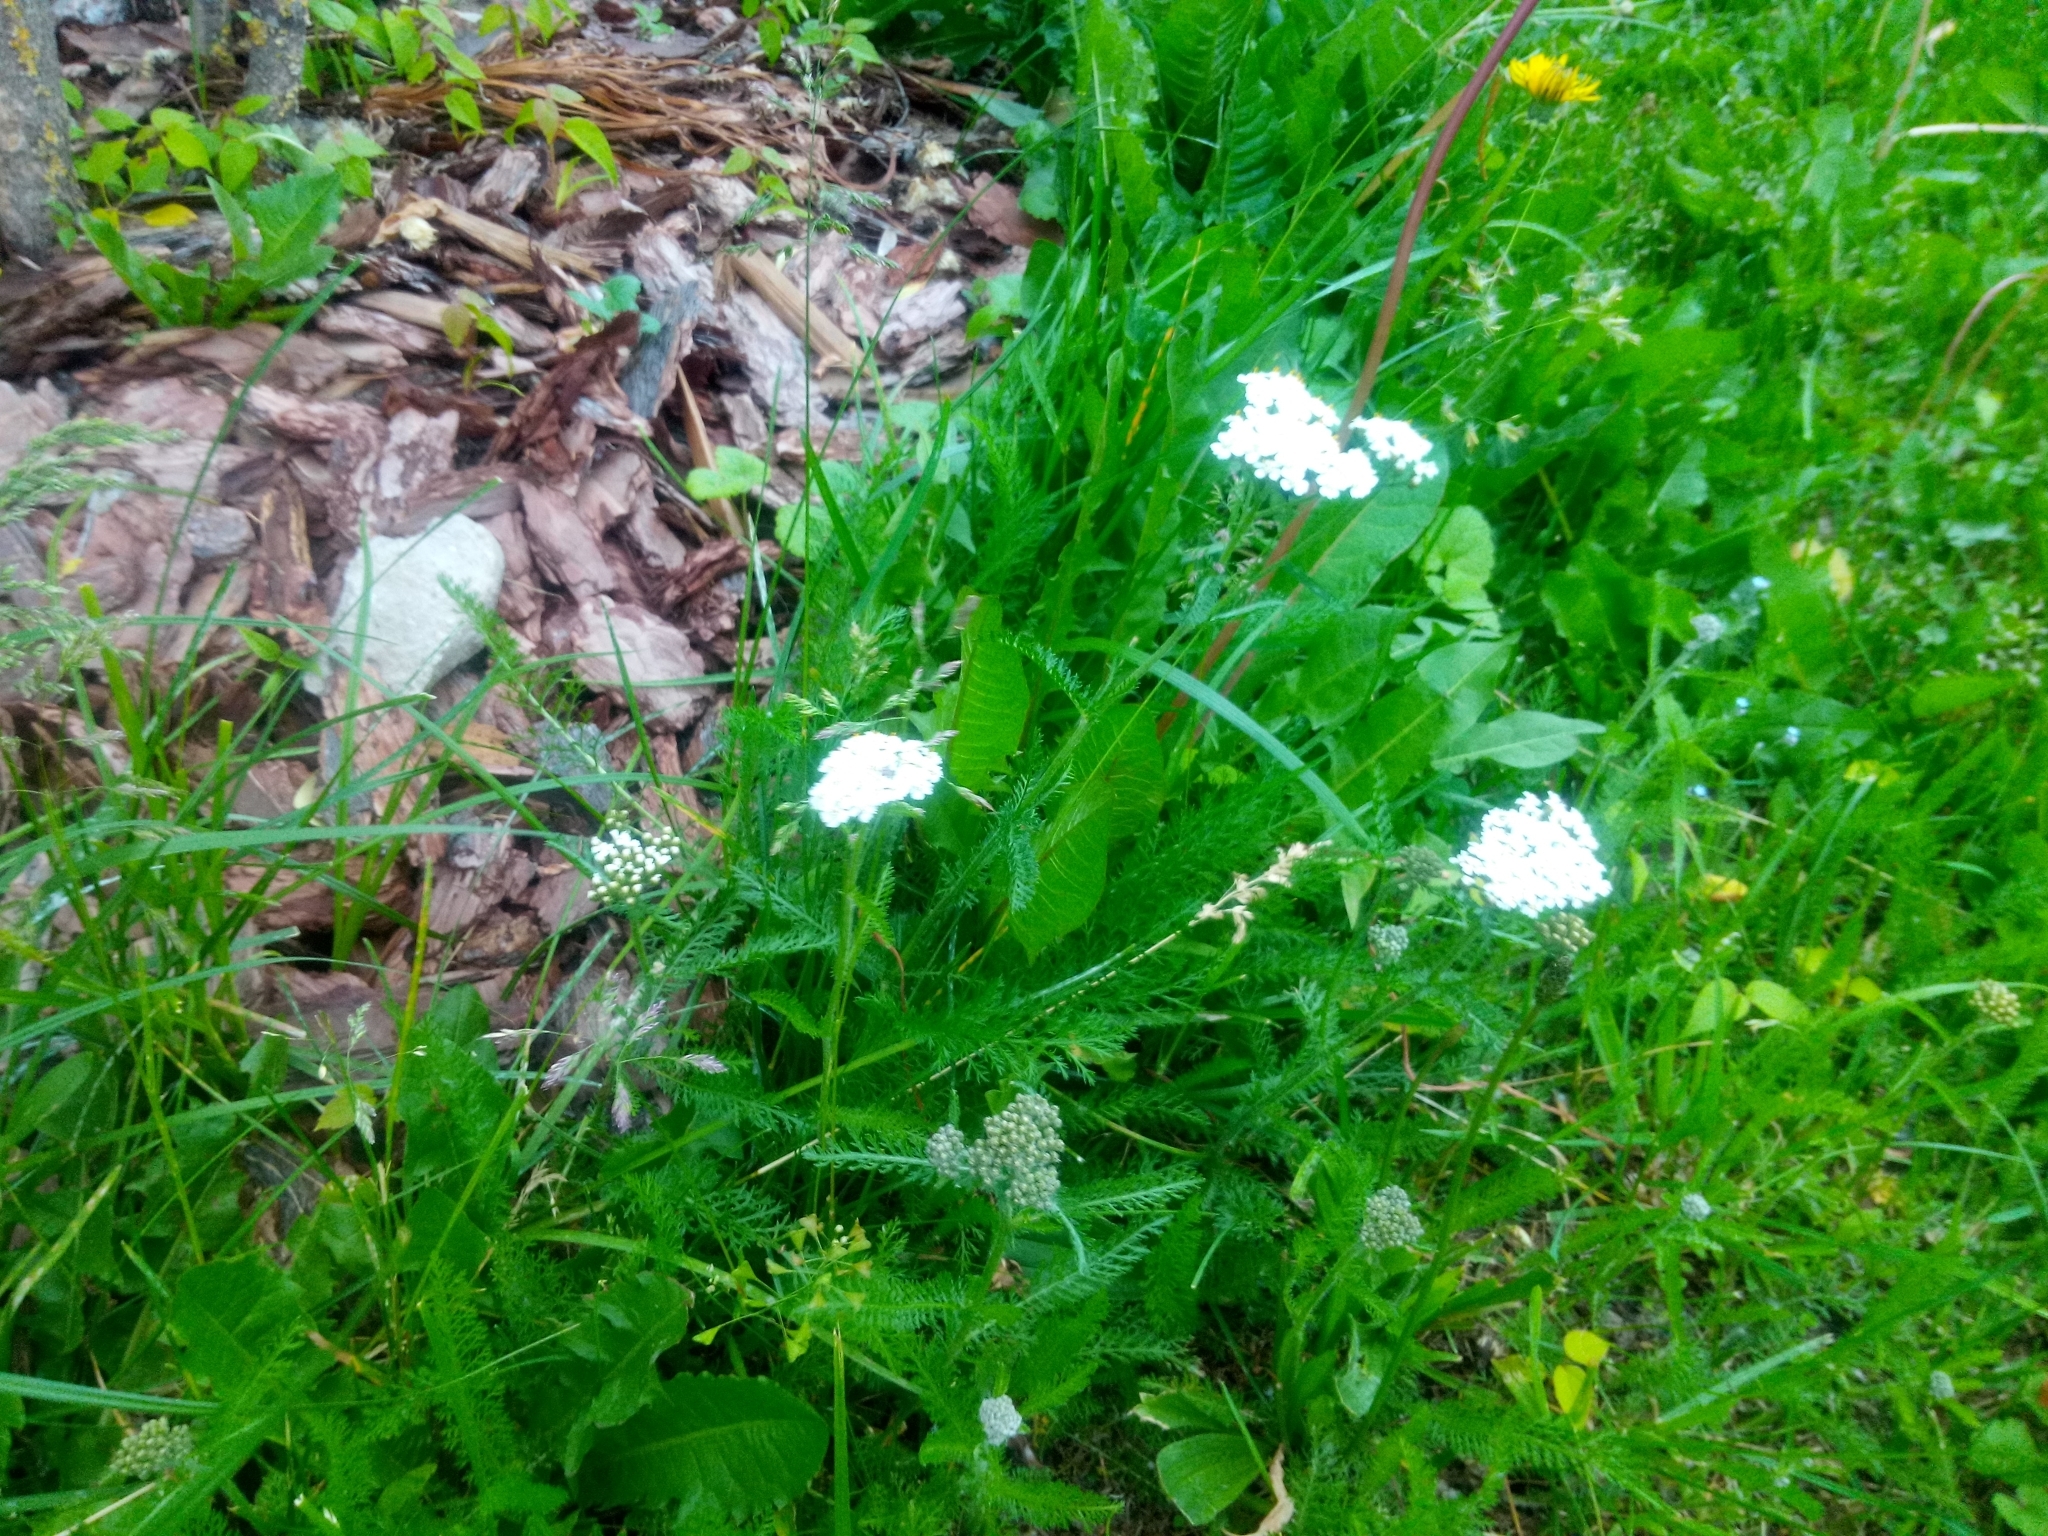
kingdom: Plantae
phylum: Tracheophyta
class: Magnoliopsida
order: Asterales
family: Asteraceae
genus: Achillea
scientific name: Achillea millefolium
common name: Yarrow
